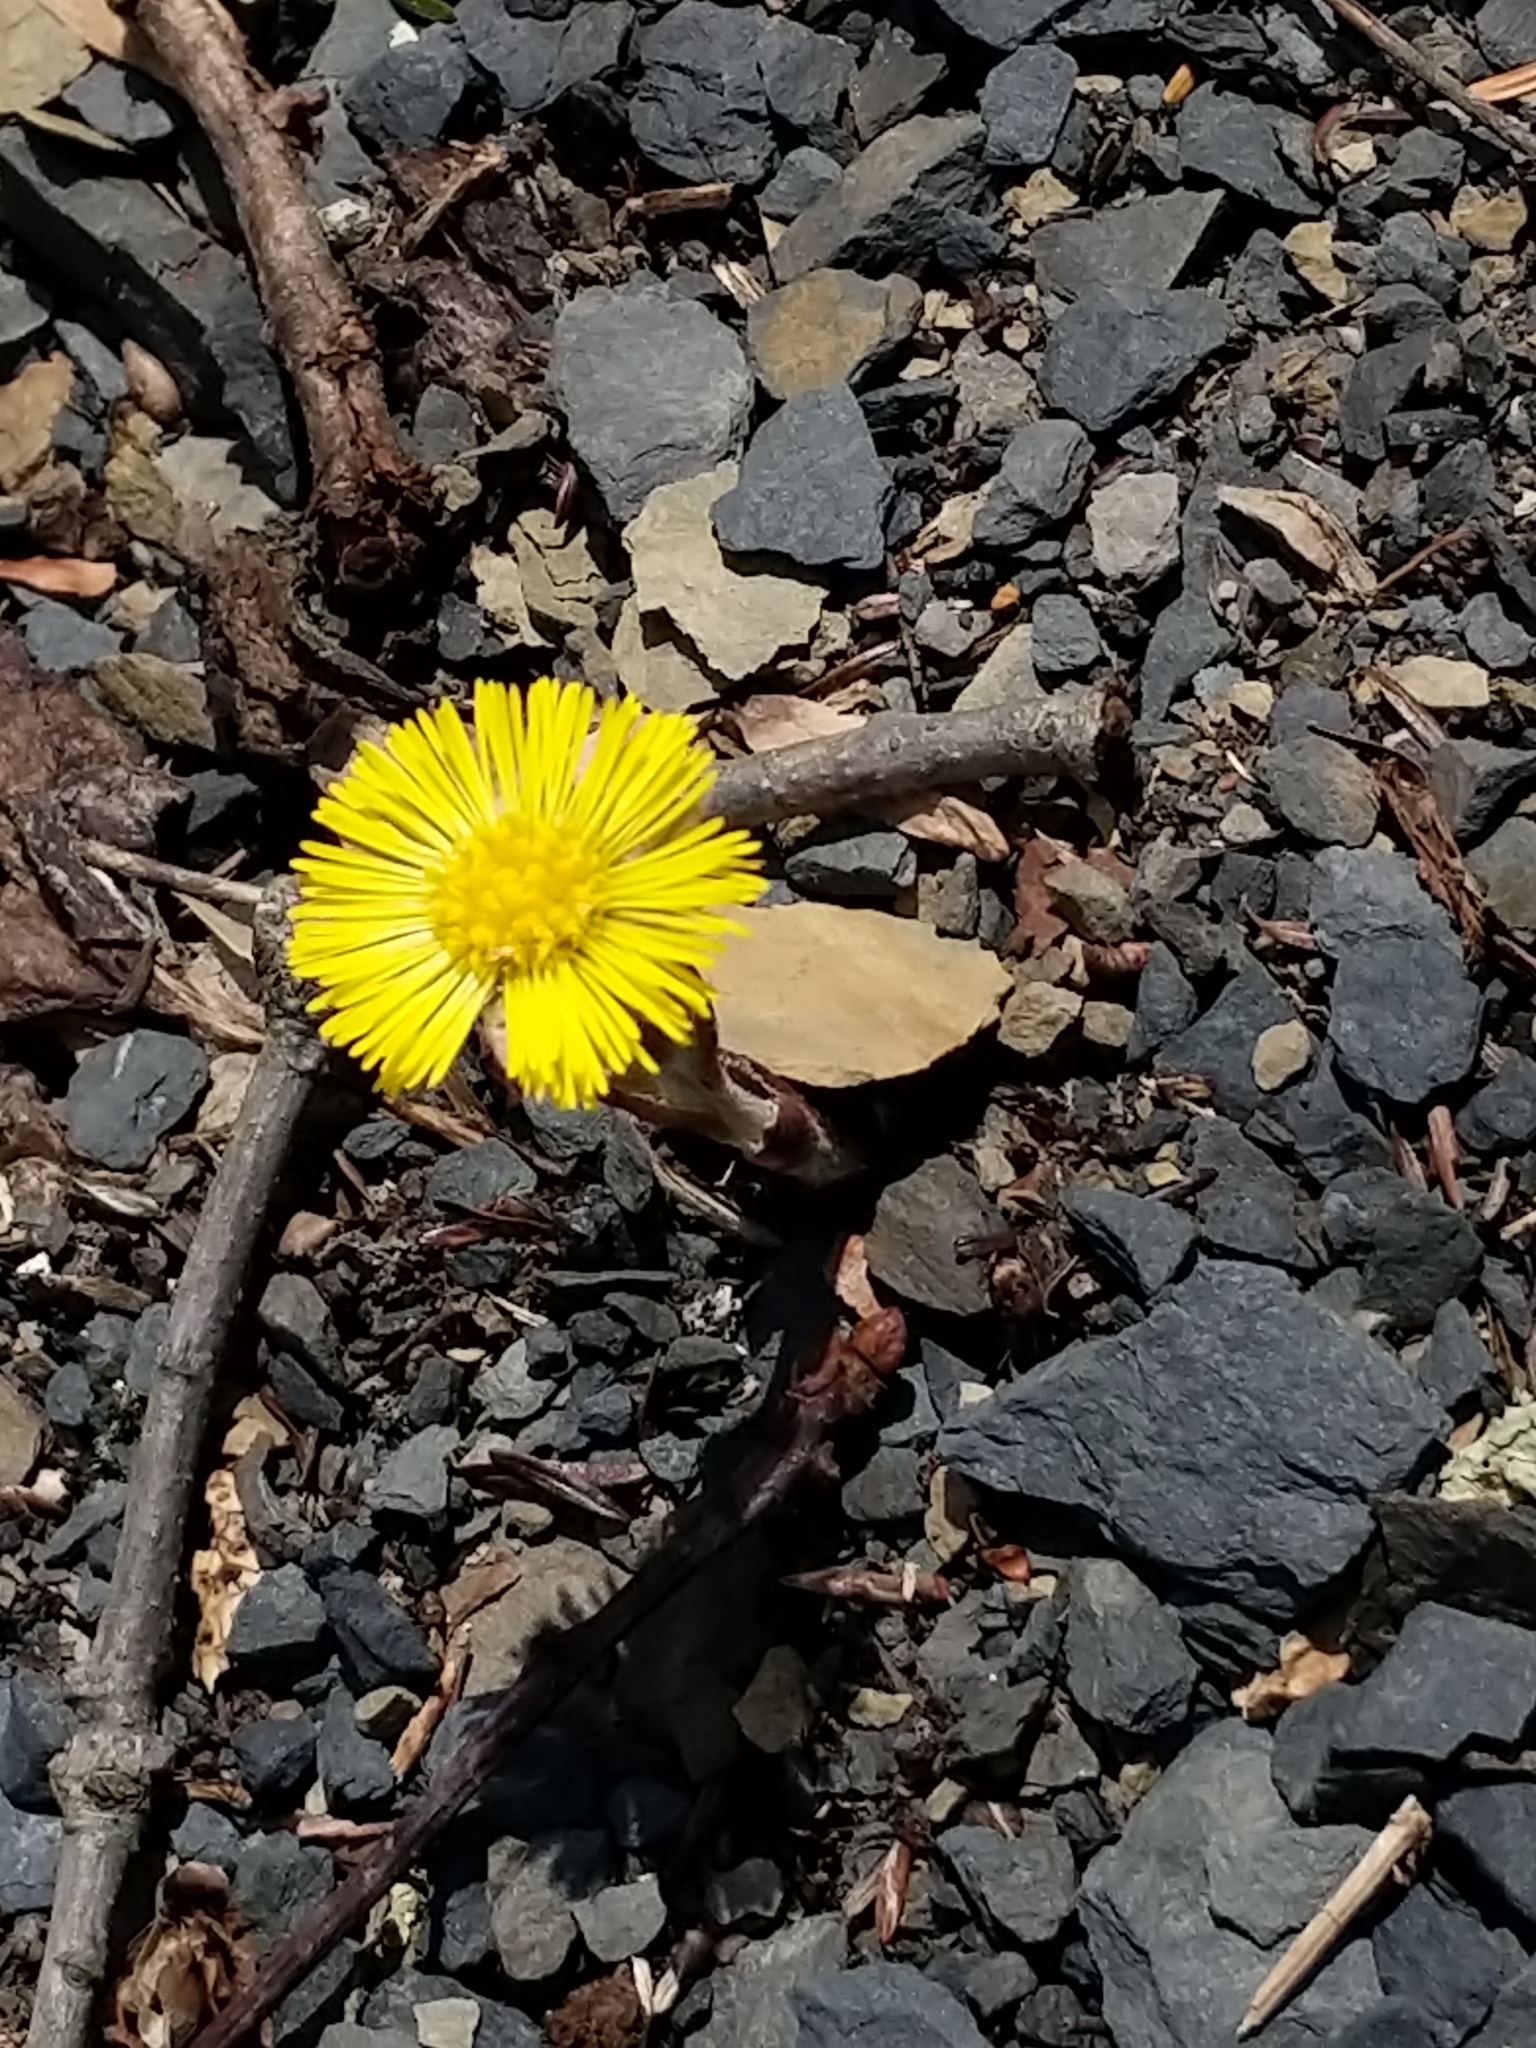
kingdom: Plantae
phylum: Tracheophyta
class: Magnoliopsida
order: Asterales
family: Asteraceae
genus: Tussilago
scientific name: Tussilago farfara
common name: Coltsfoot
